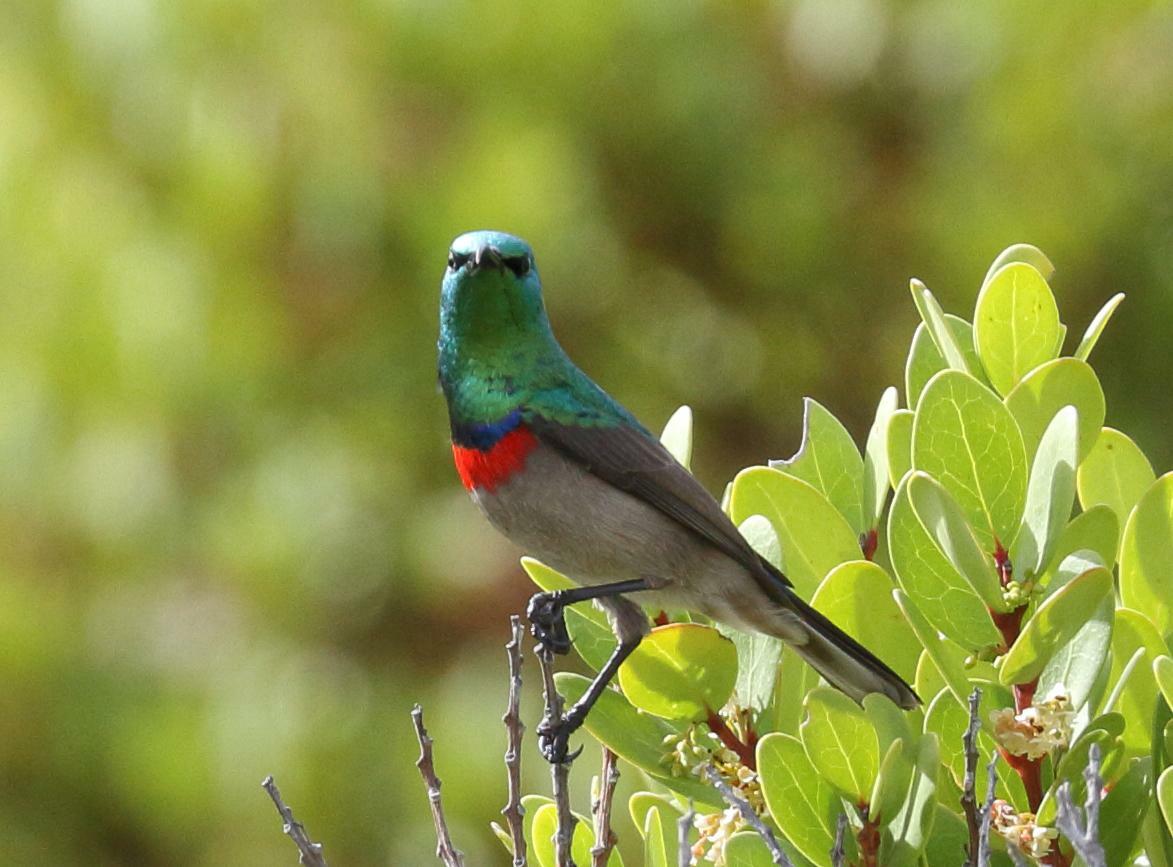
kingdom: Animalia
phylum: Chordata
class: Aves
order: Passeriformes
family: Nectariniidae
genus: Cinnyris
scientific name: Cinnyris chalybeus
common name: Southern double-collared sunbird
